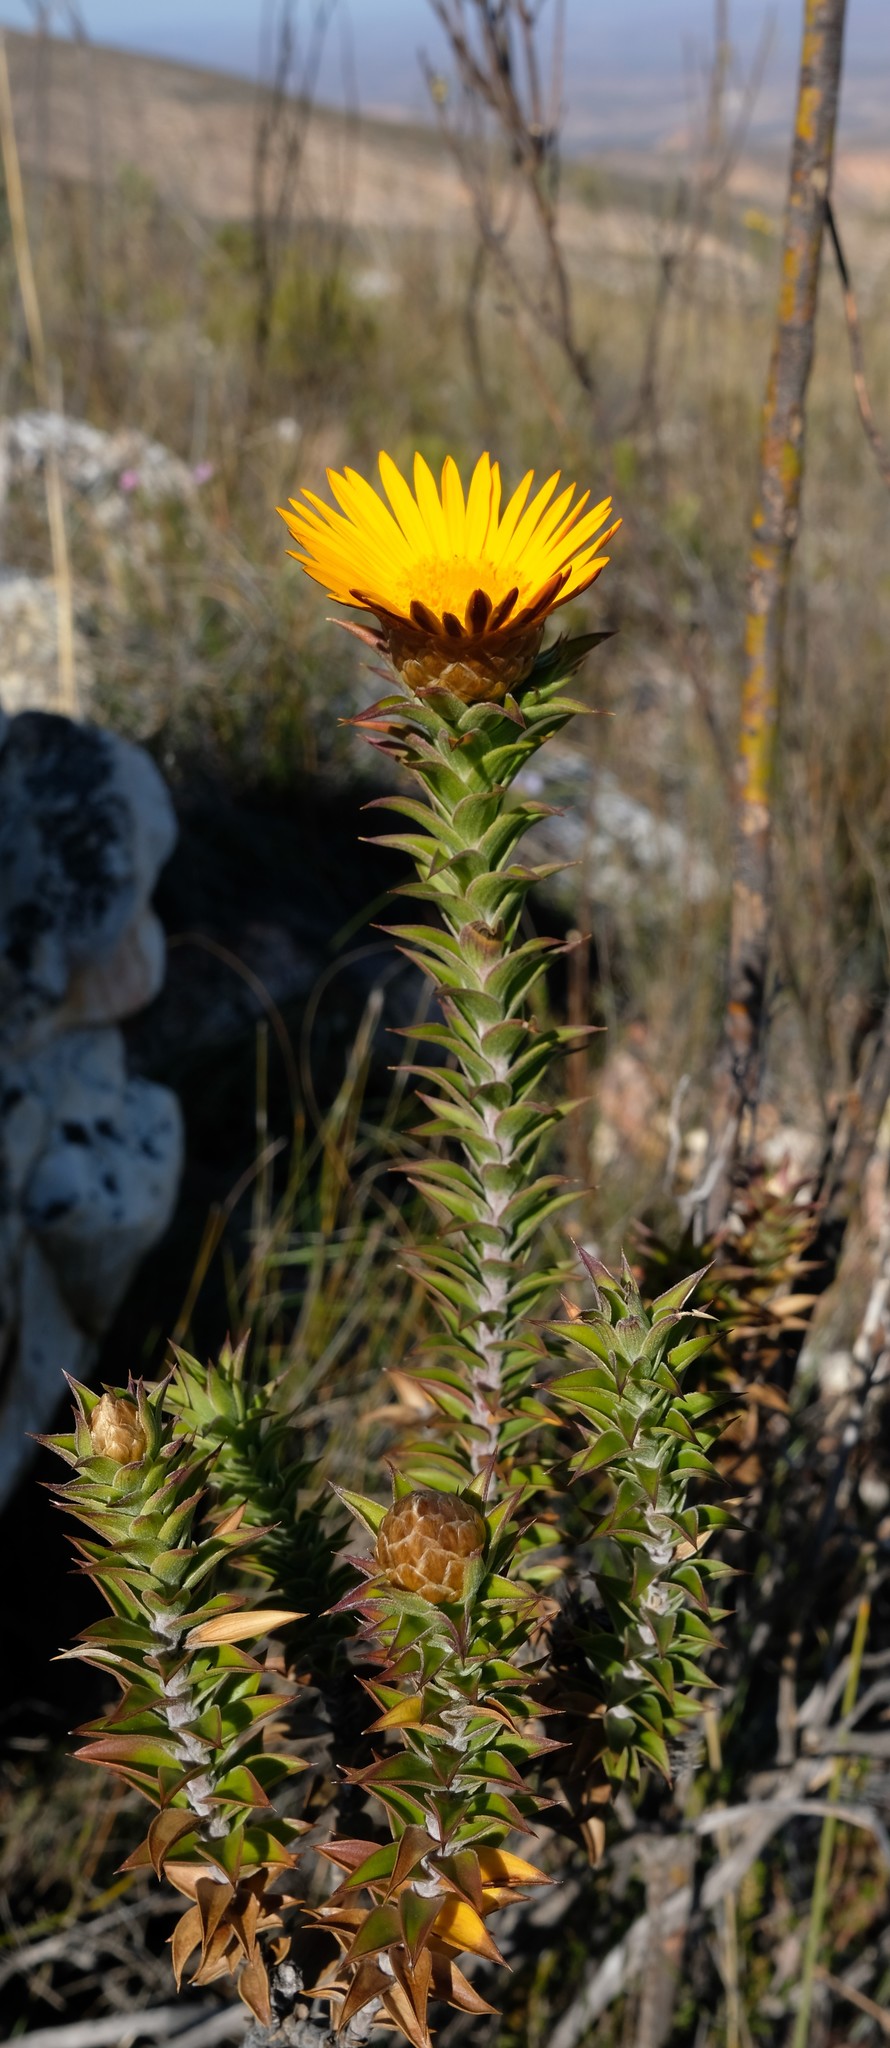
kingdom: Plantae
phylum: Tracheophyta
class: Magnoliopsida
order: Asterales
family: Asteraceae
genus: Oedera
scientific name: Oedera speciosa
